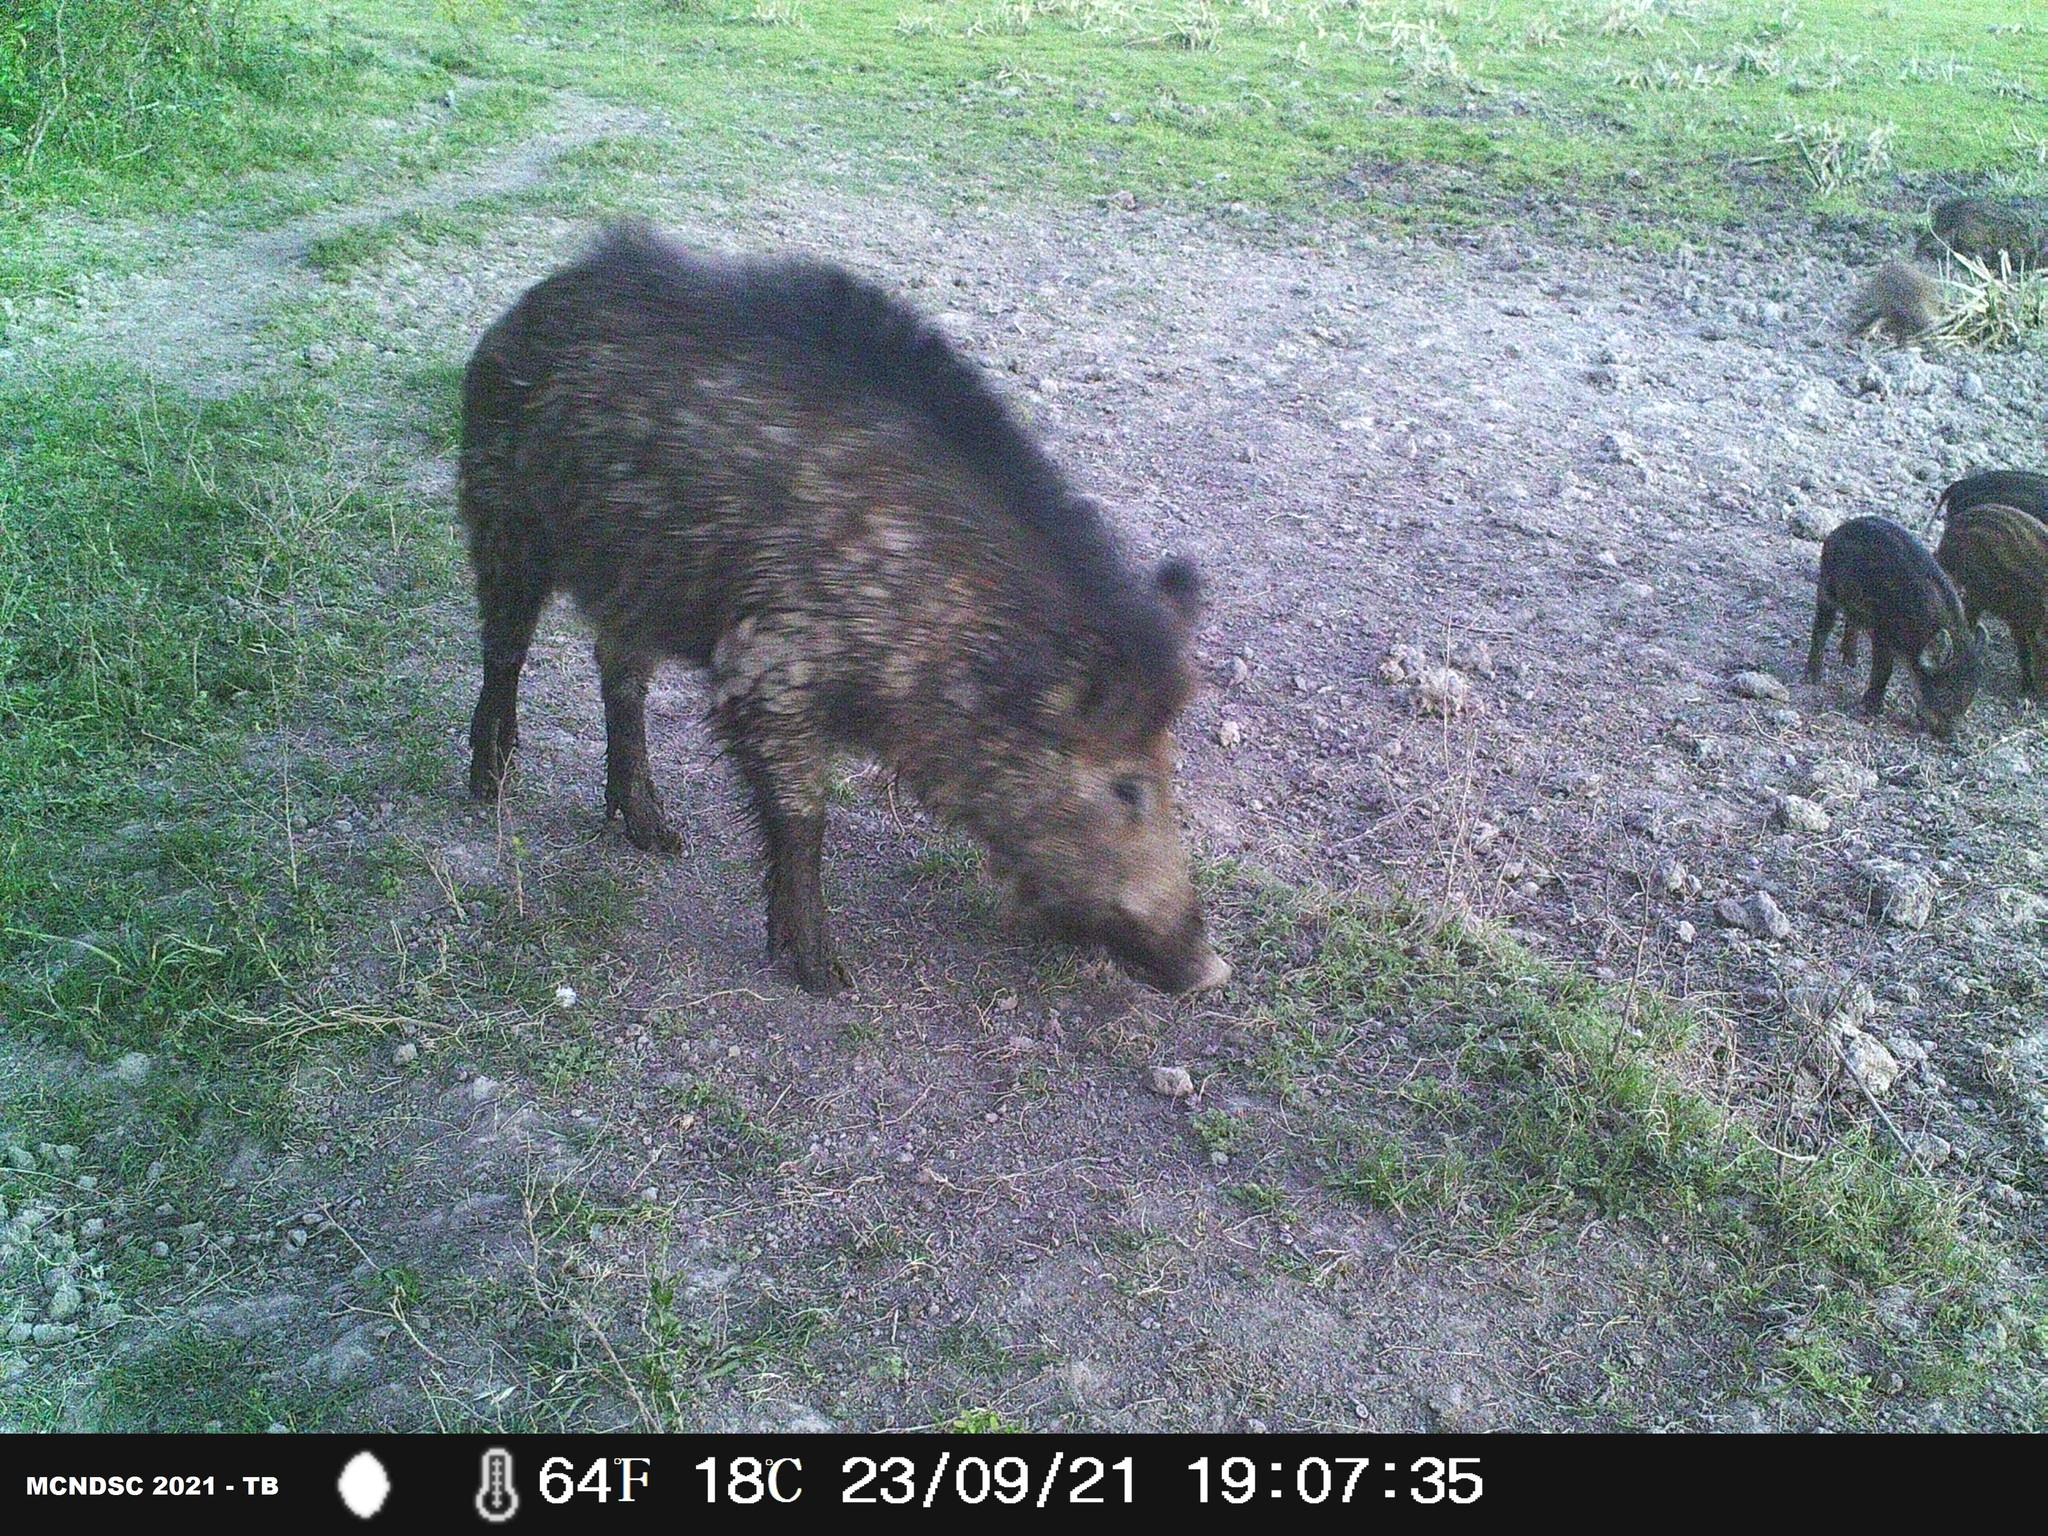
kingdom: Animalia
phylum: Chordata
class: Mammalia
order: Artiodactyla
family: Suidae
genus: Sus
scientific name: Sus scrofa
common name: Wild boar
